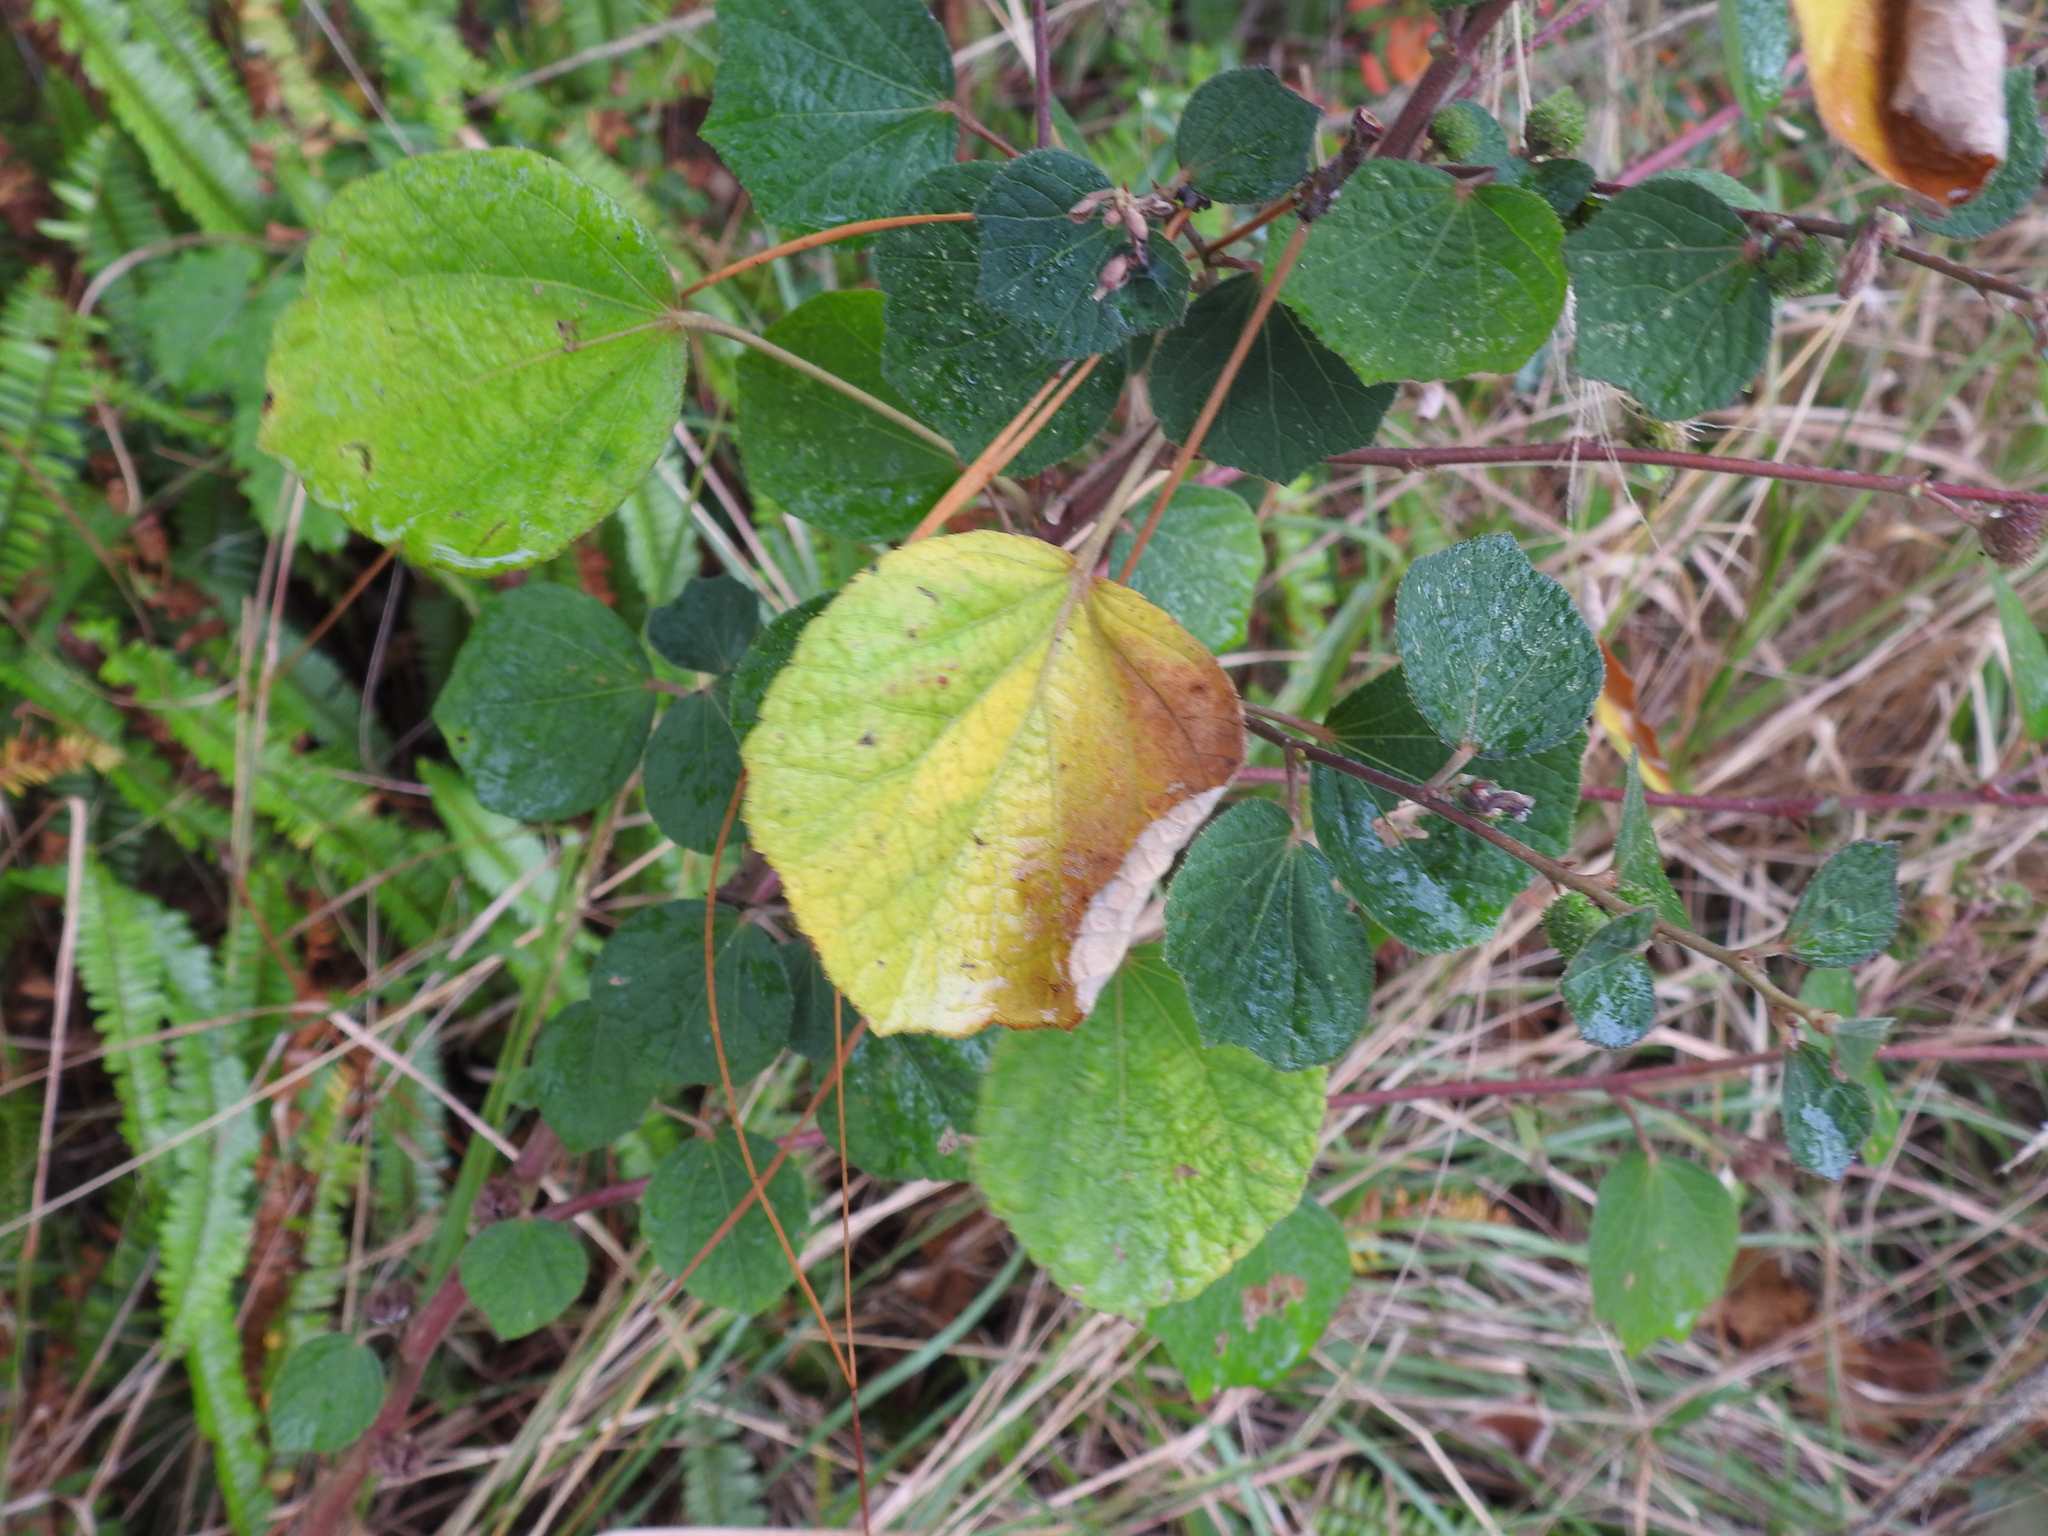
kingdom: Plantae
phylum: Tracheophyta
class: Magnoliopsida
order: Malvales
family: Malvaceae
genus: Urena
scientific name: Urena lobata
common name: Caesarweed
